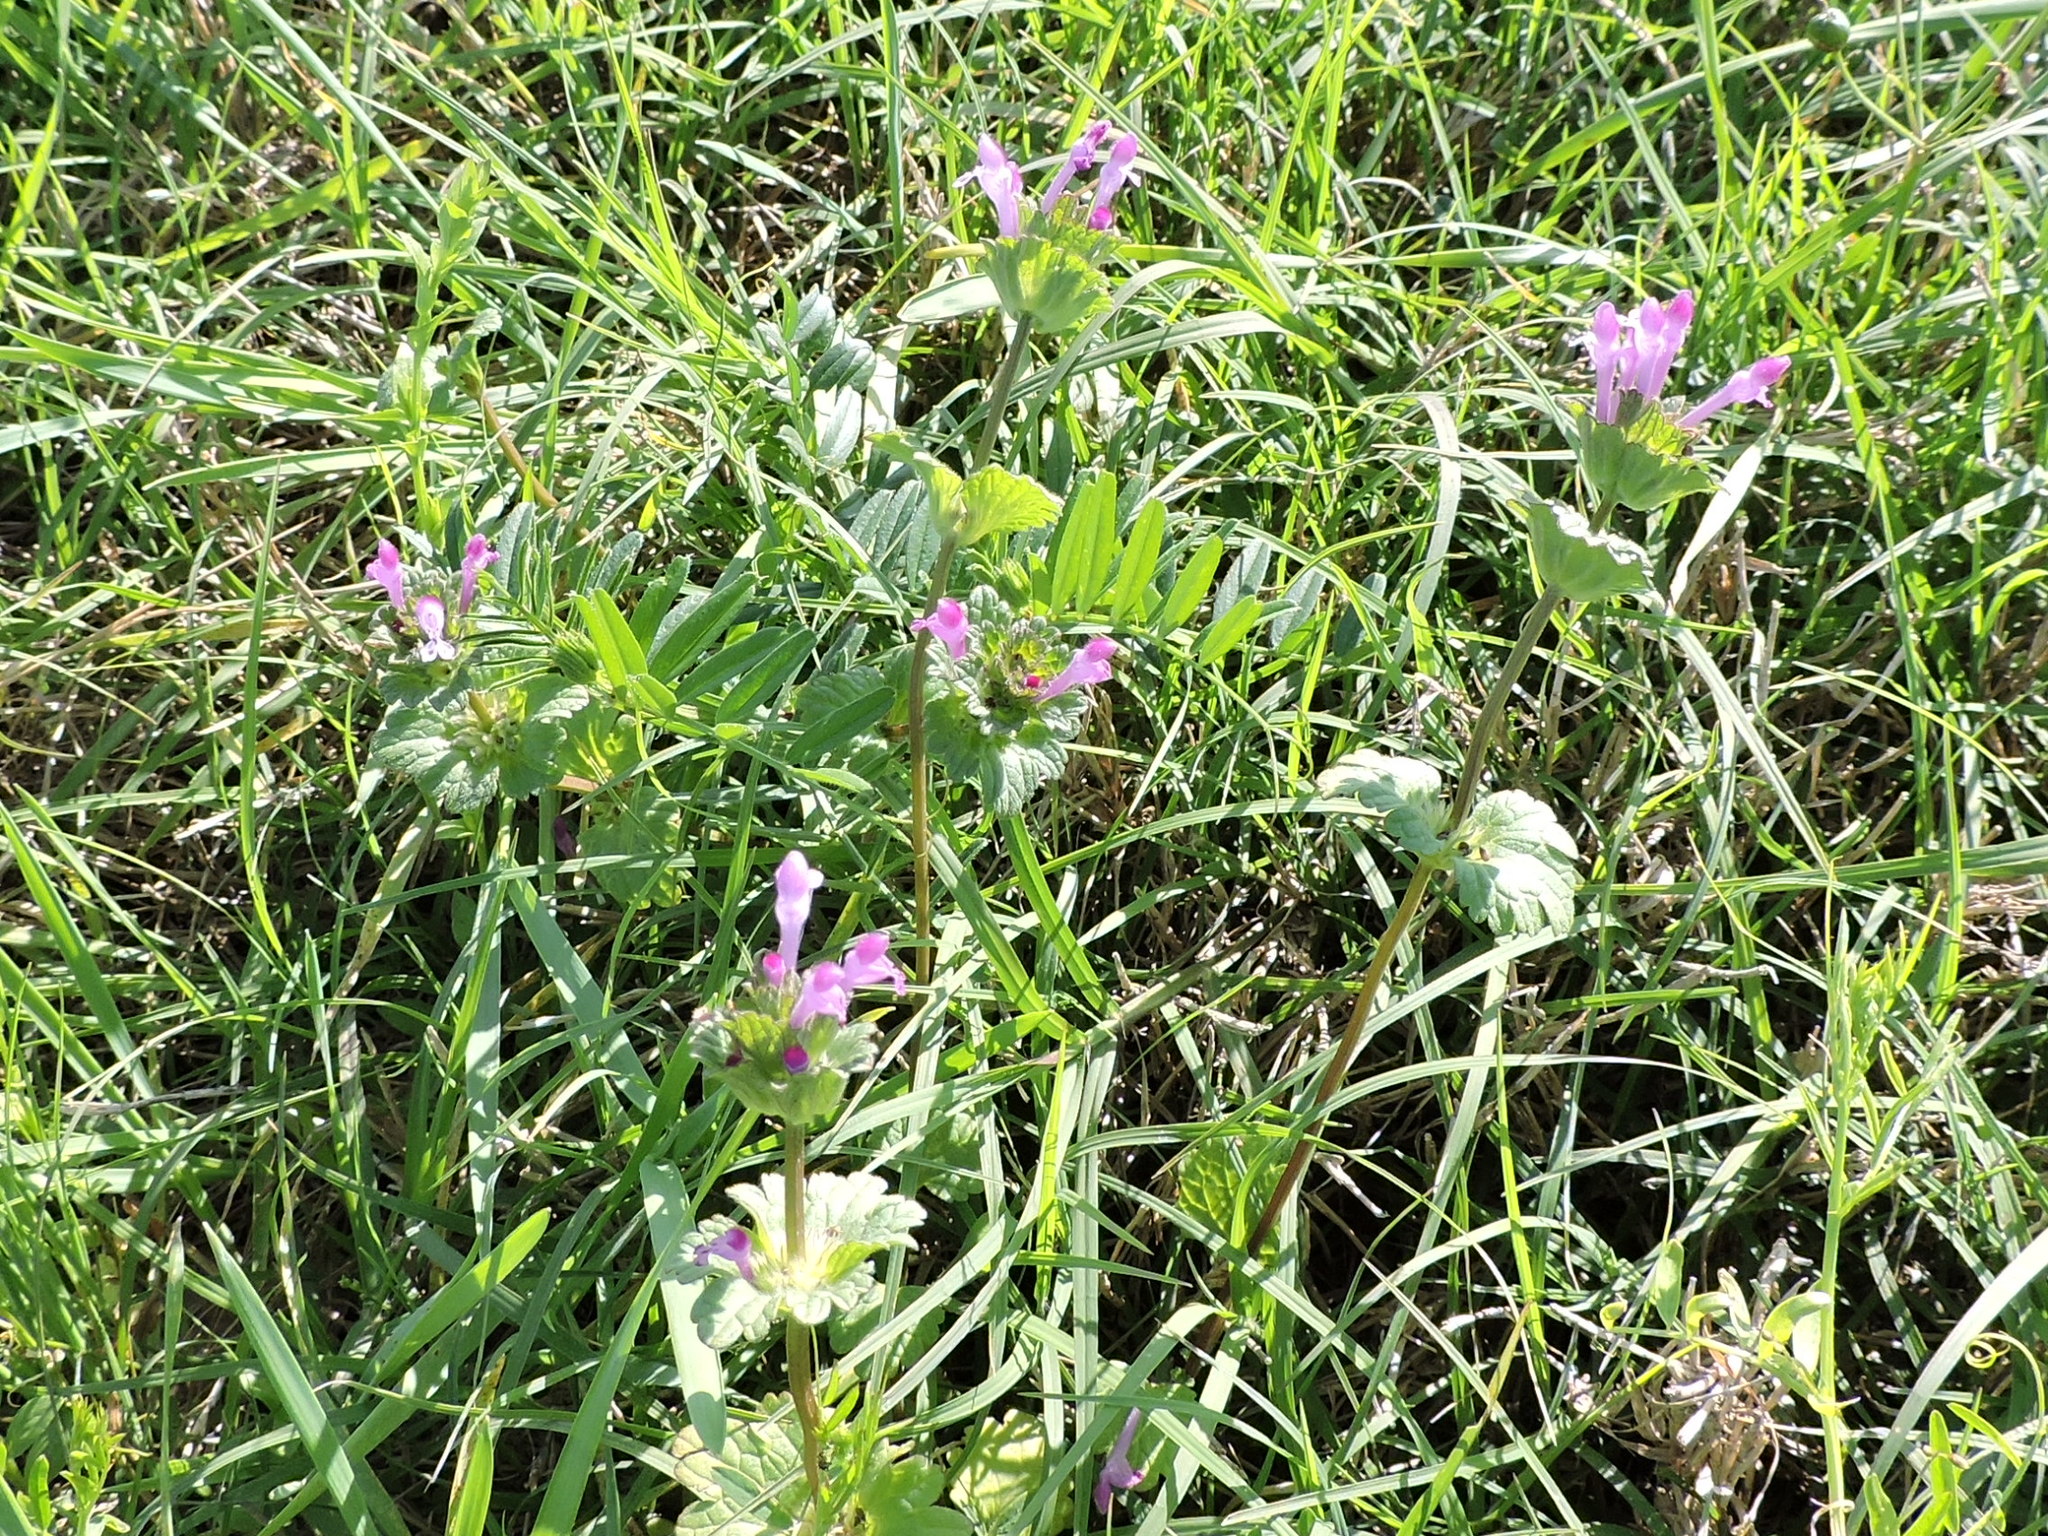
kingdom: Plantae
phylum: Tracheophyta
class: Magnoliopsida
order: Lamiales
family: Lamiaceae
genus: Lamium
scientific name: Lamium amplexicaule
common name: Henbit dead-nettle
